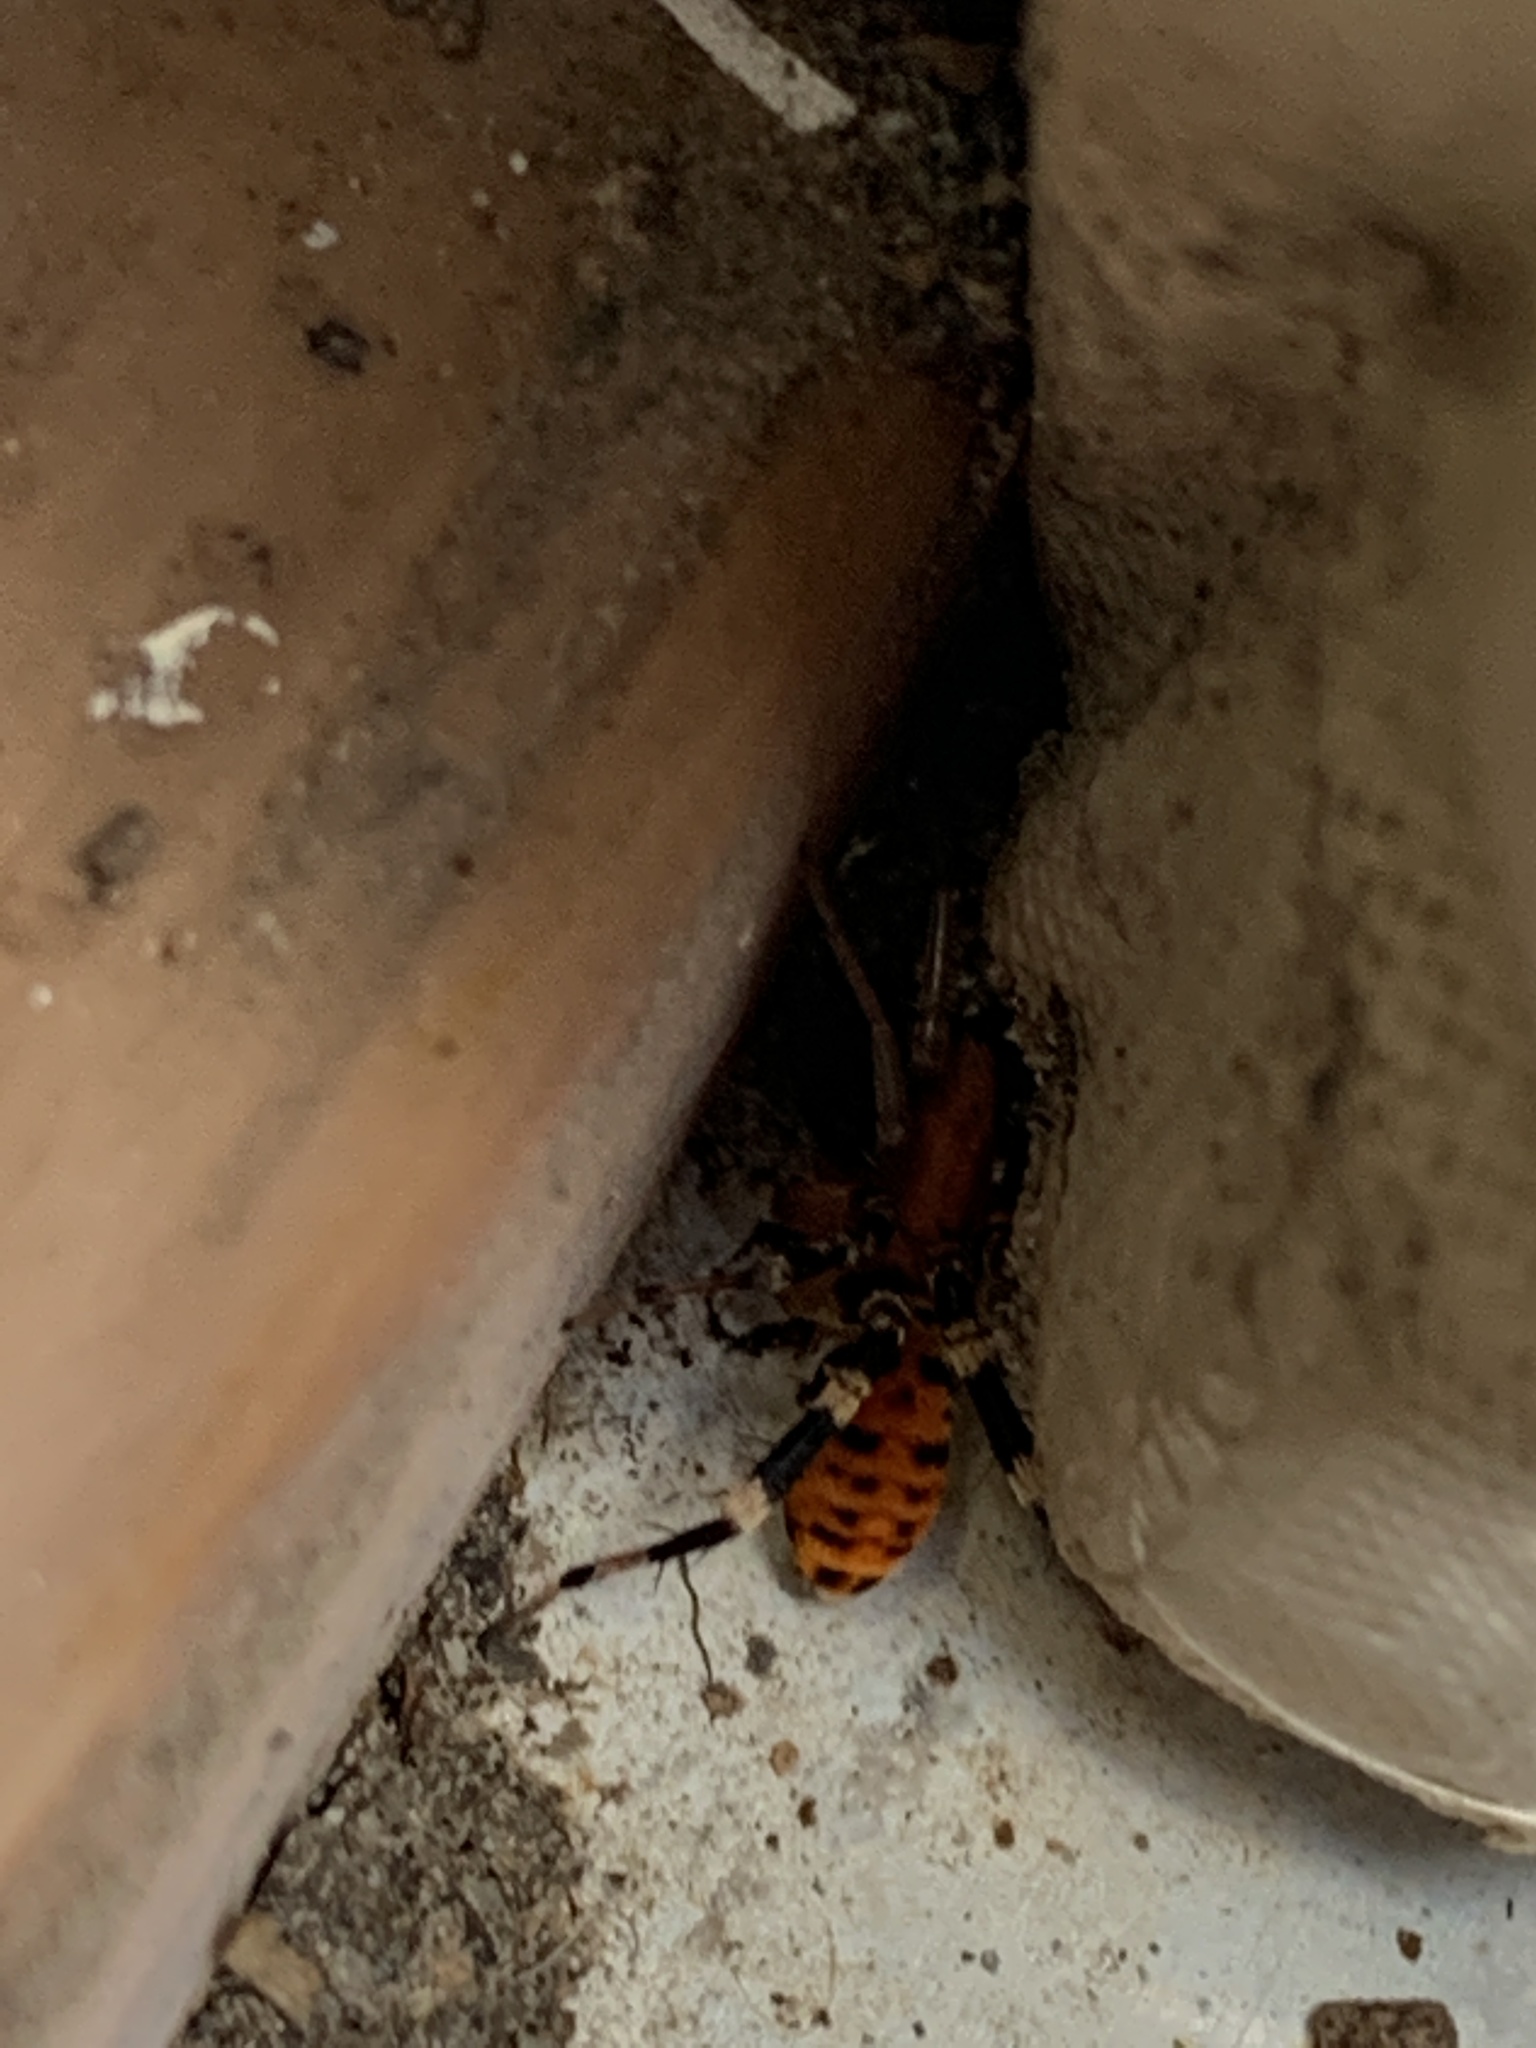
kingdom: Animalia
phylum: Arthropoda
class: Arachnida
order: Araneae
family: Corinnidae
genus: Castianeira
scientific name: Castianeira amoena
